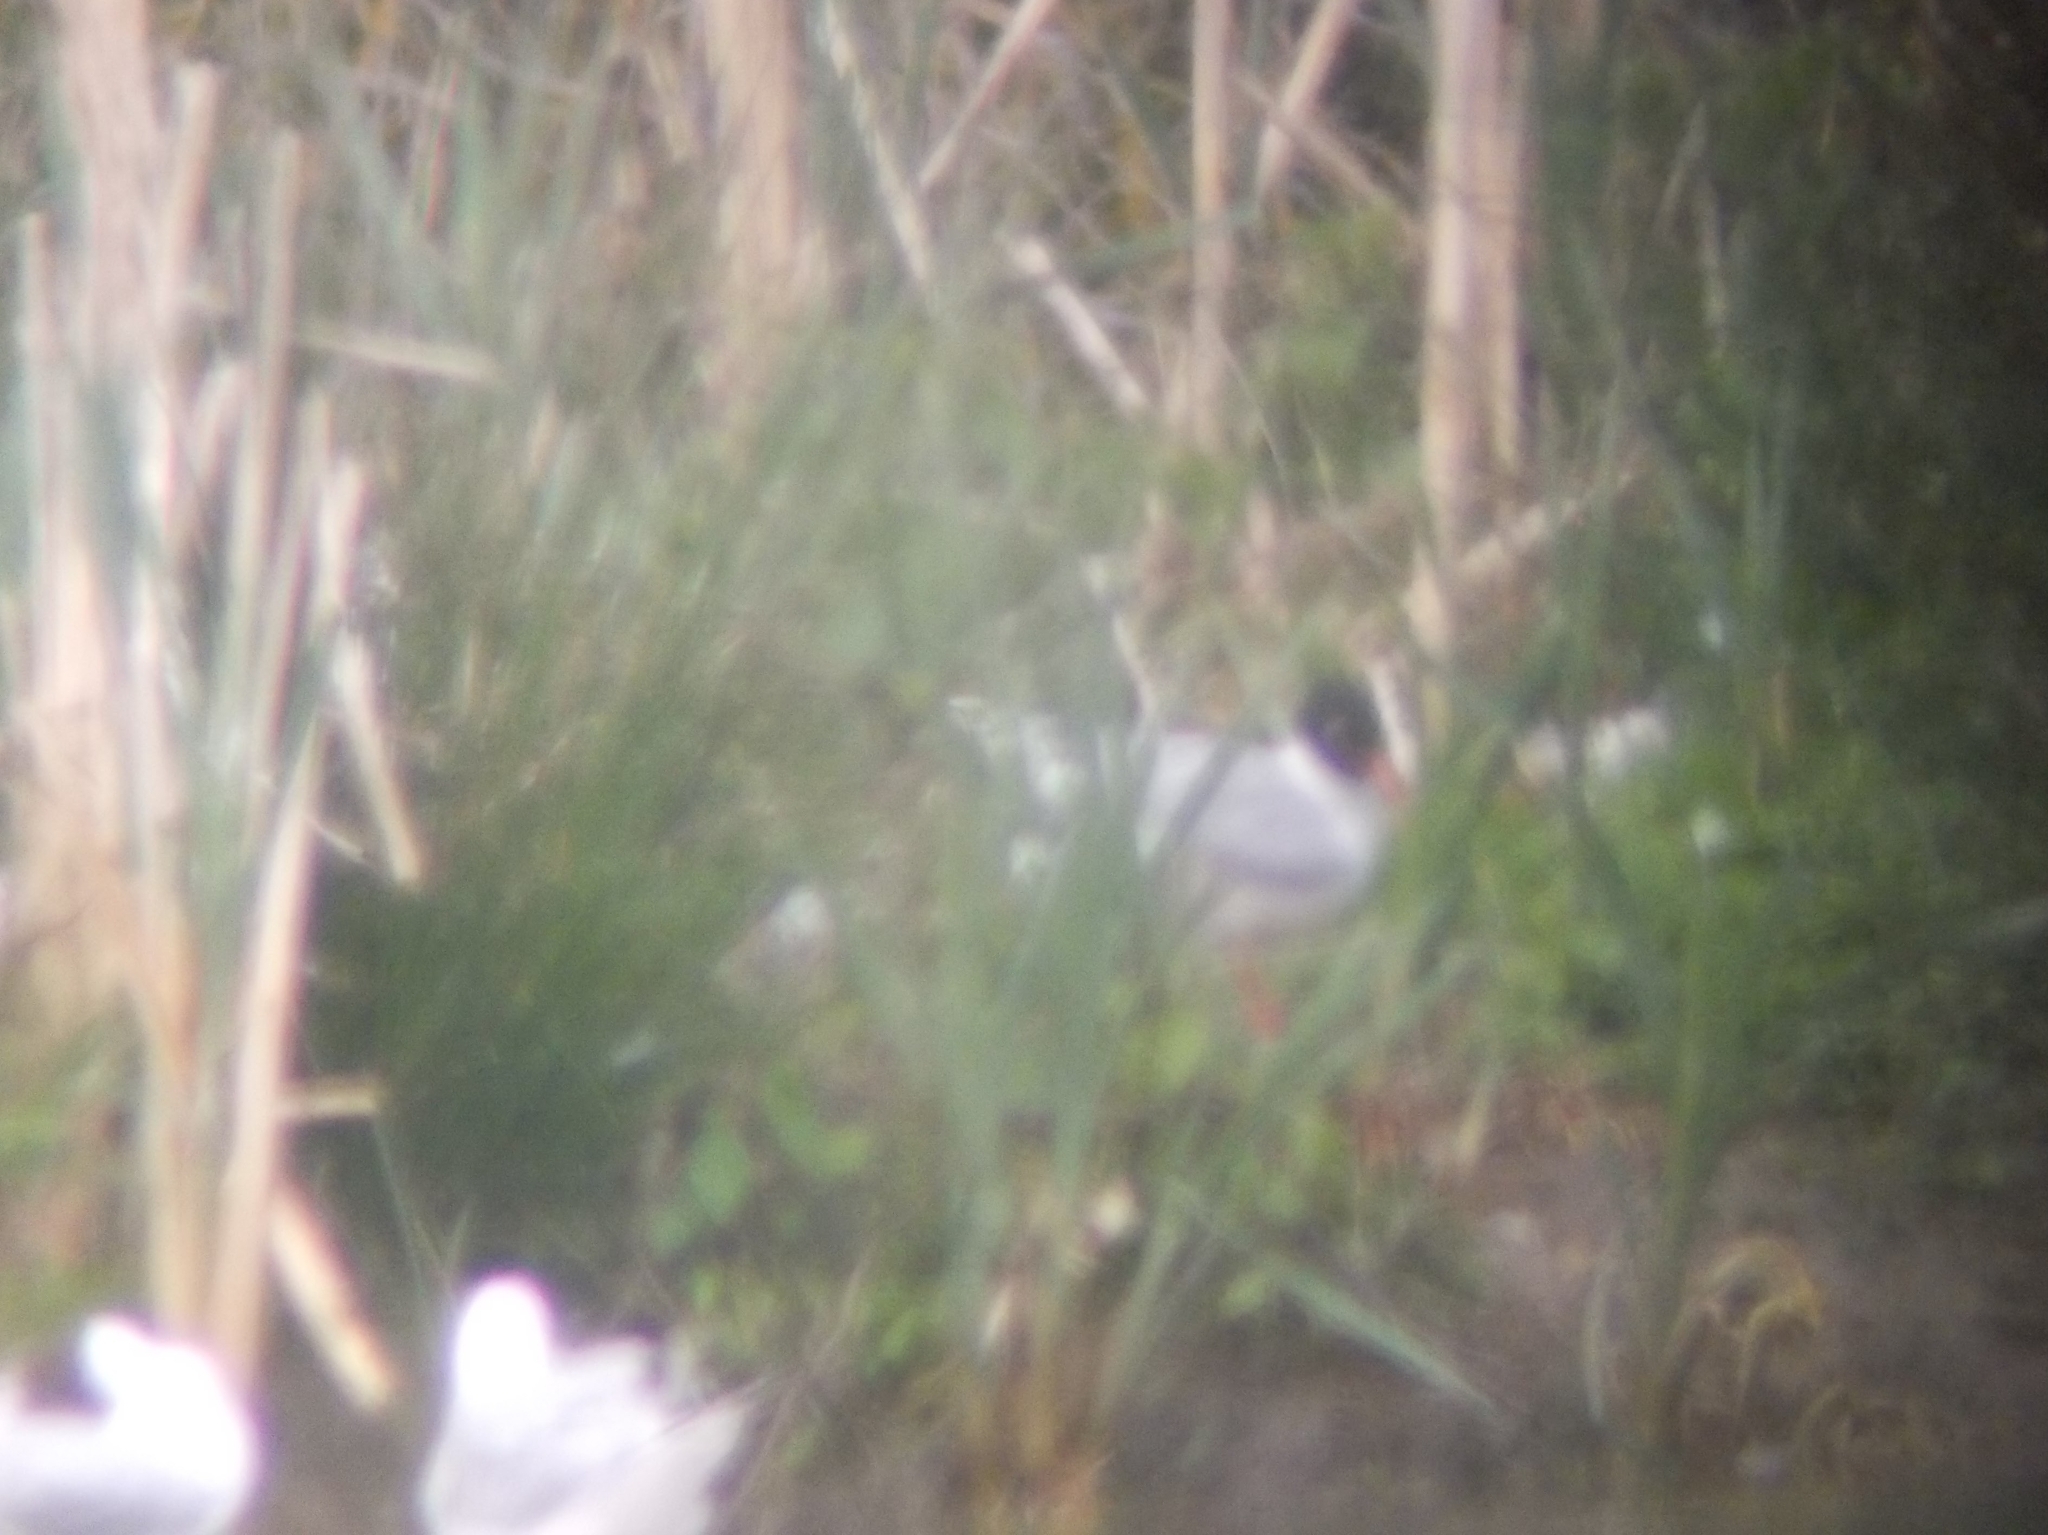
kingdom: Animalia
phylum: Chordata
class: Aves
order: Charadriiformes
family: Laridae
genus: Ichthyaetus
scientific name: Ichthyaetus melanocephalus
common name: Mediterranean gull
